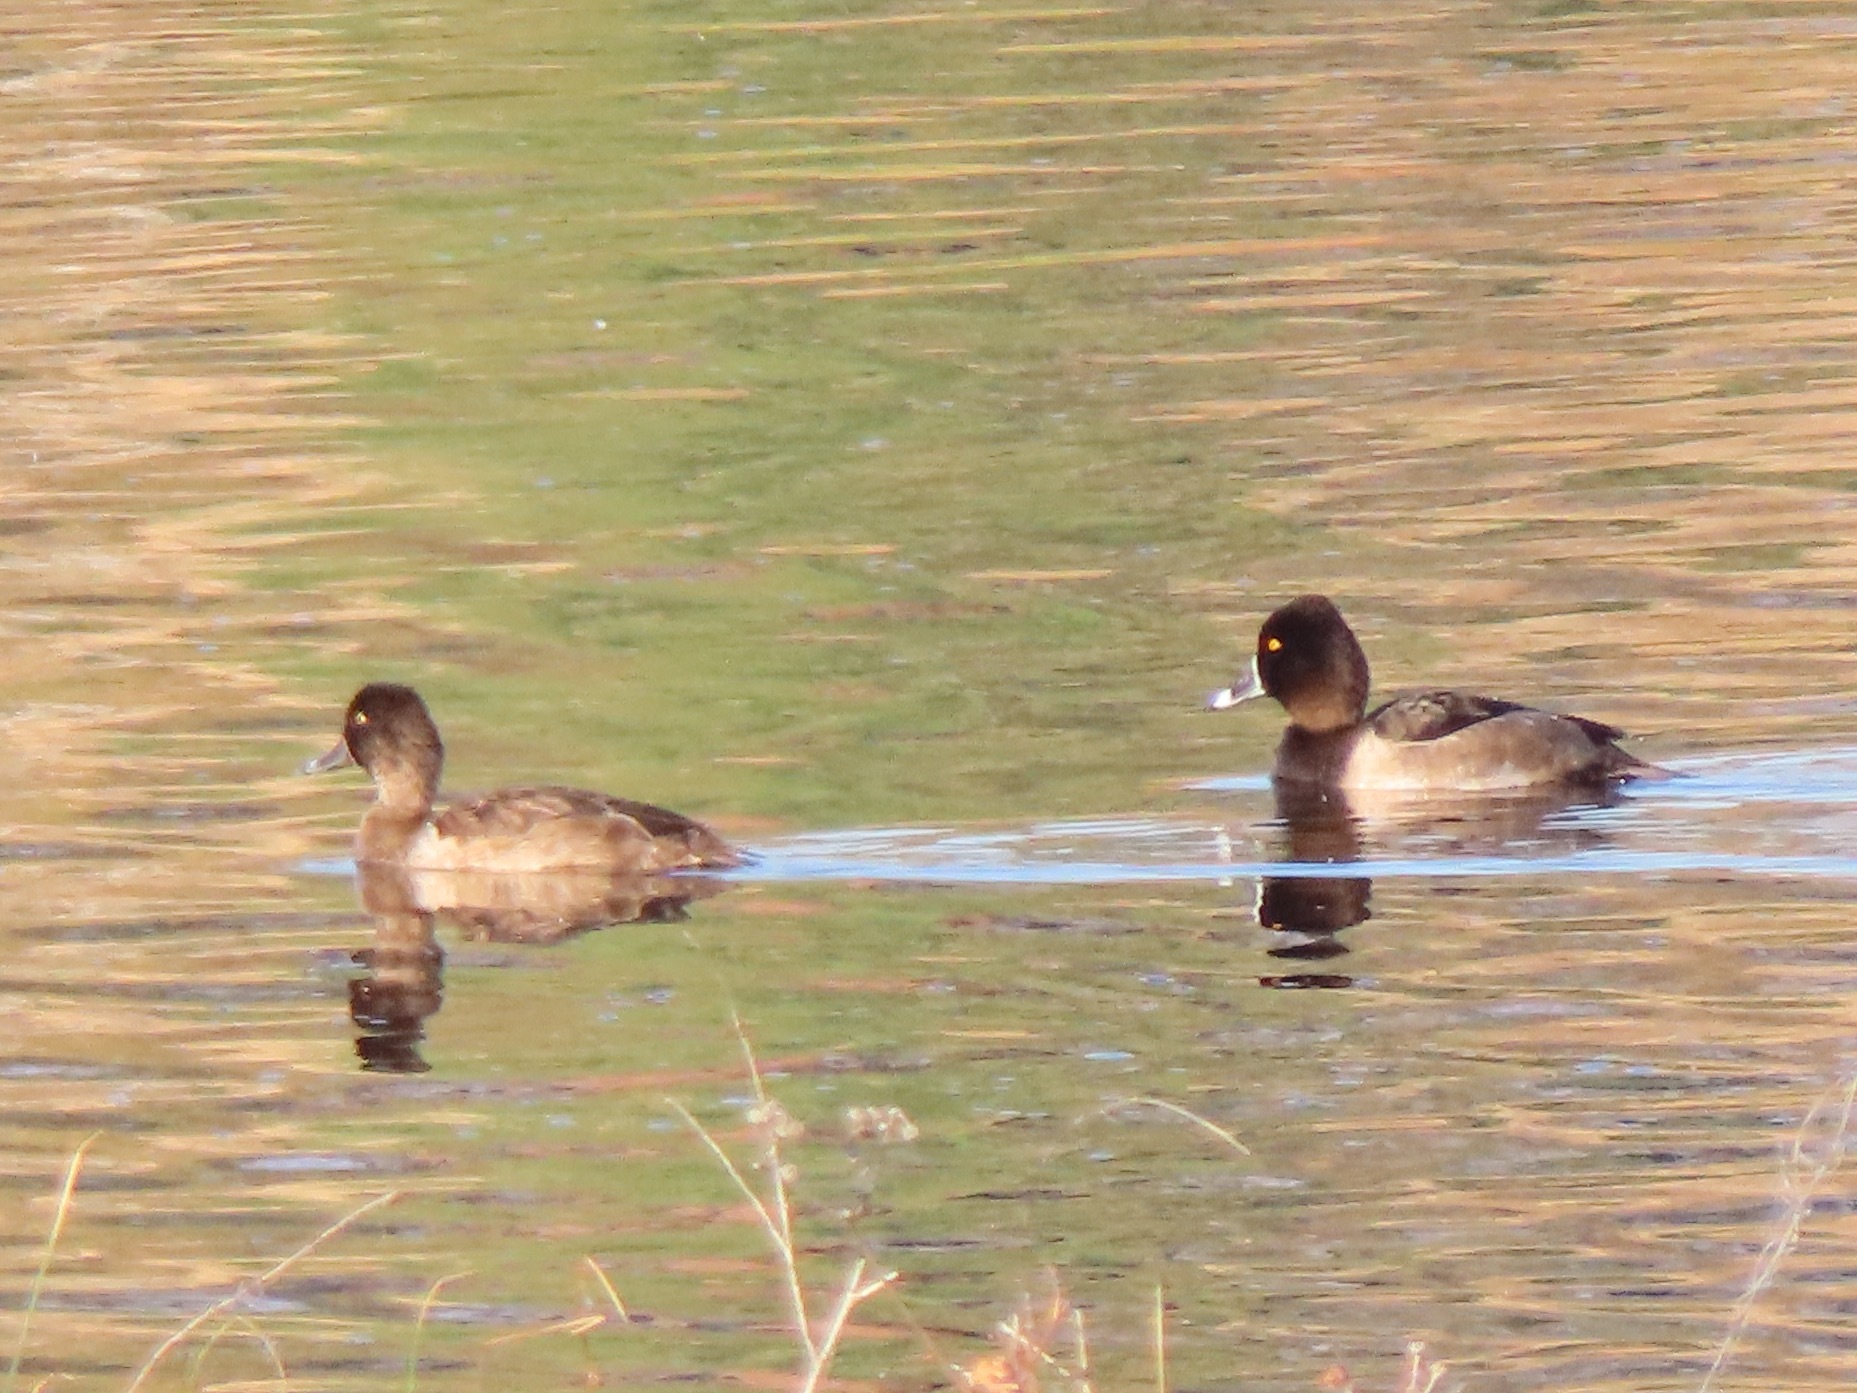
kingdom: Animalia
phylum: Chordata
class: Aves
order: Anseriformes
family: Anatidae
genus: Aythya
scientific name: Aythya collaris
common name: Ring-necked duck
